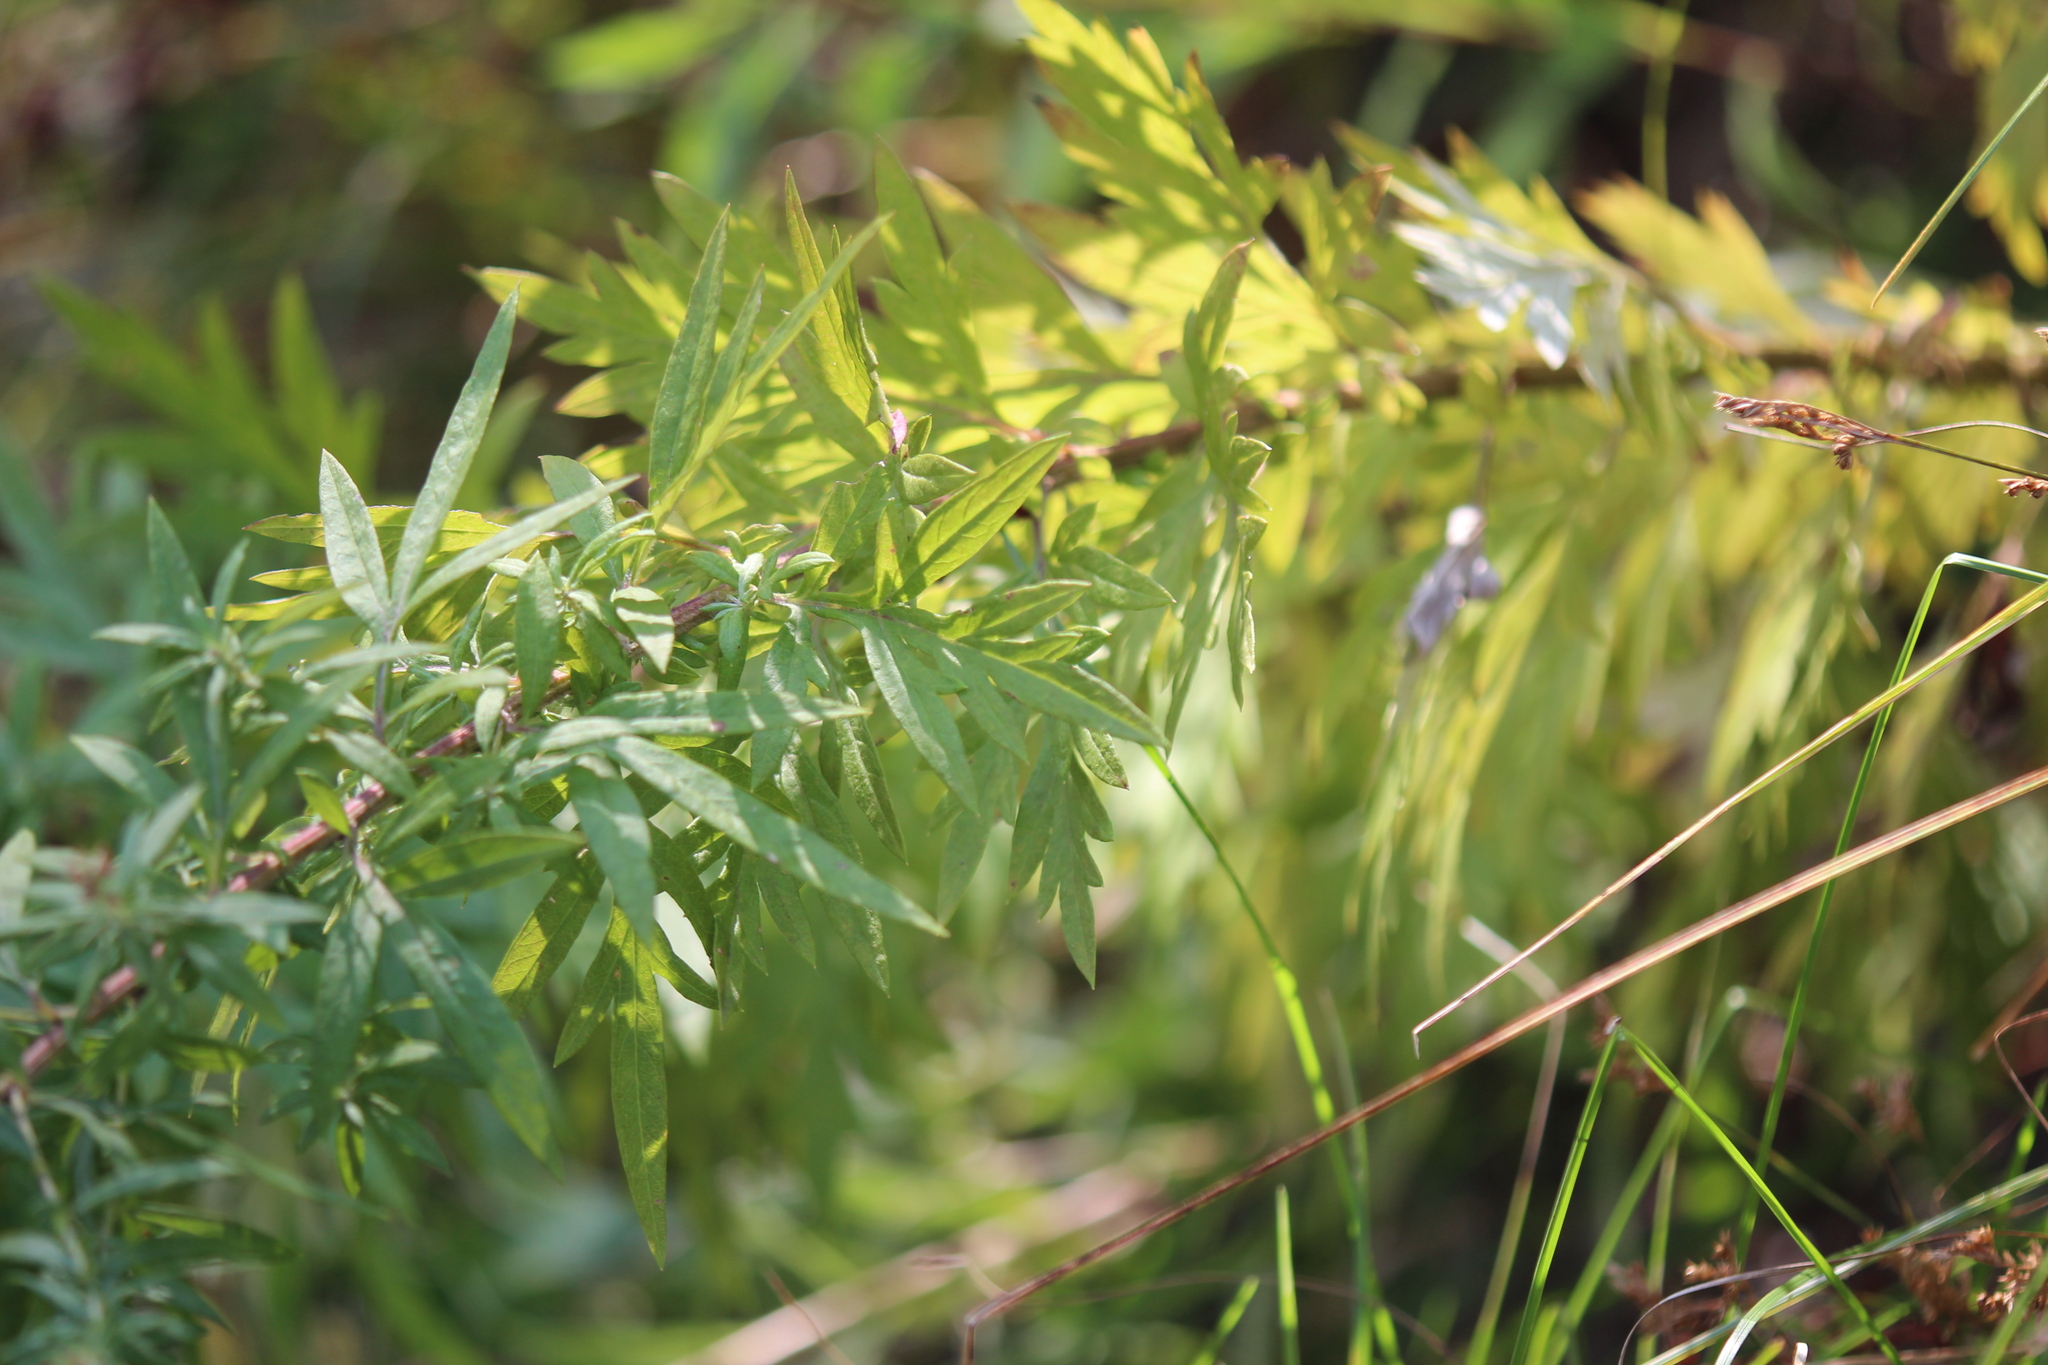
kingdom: Plantae
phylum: Tracheophyta
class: Magnoliopsida
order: Asterales
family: Asteraceae
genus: Artemisia
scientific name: Artemisia vulgaris
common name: Mugwort
